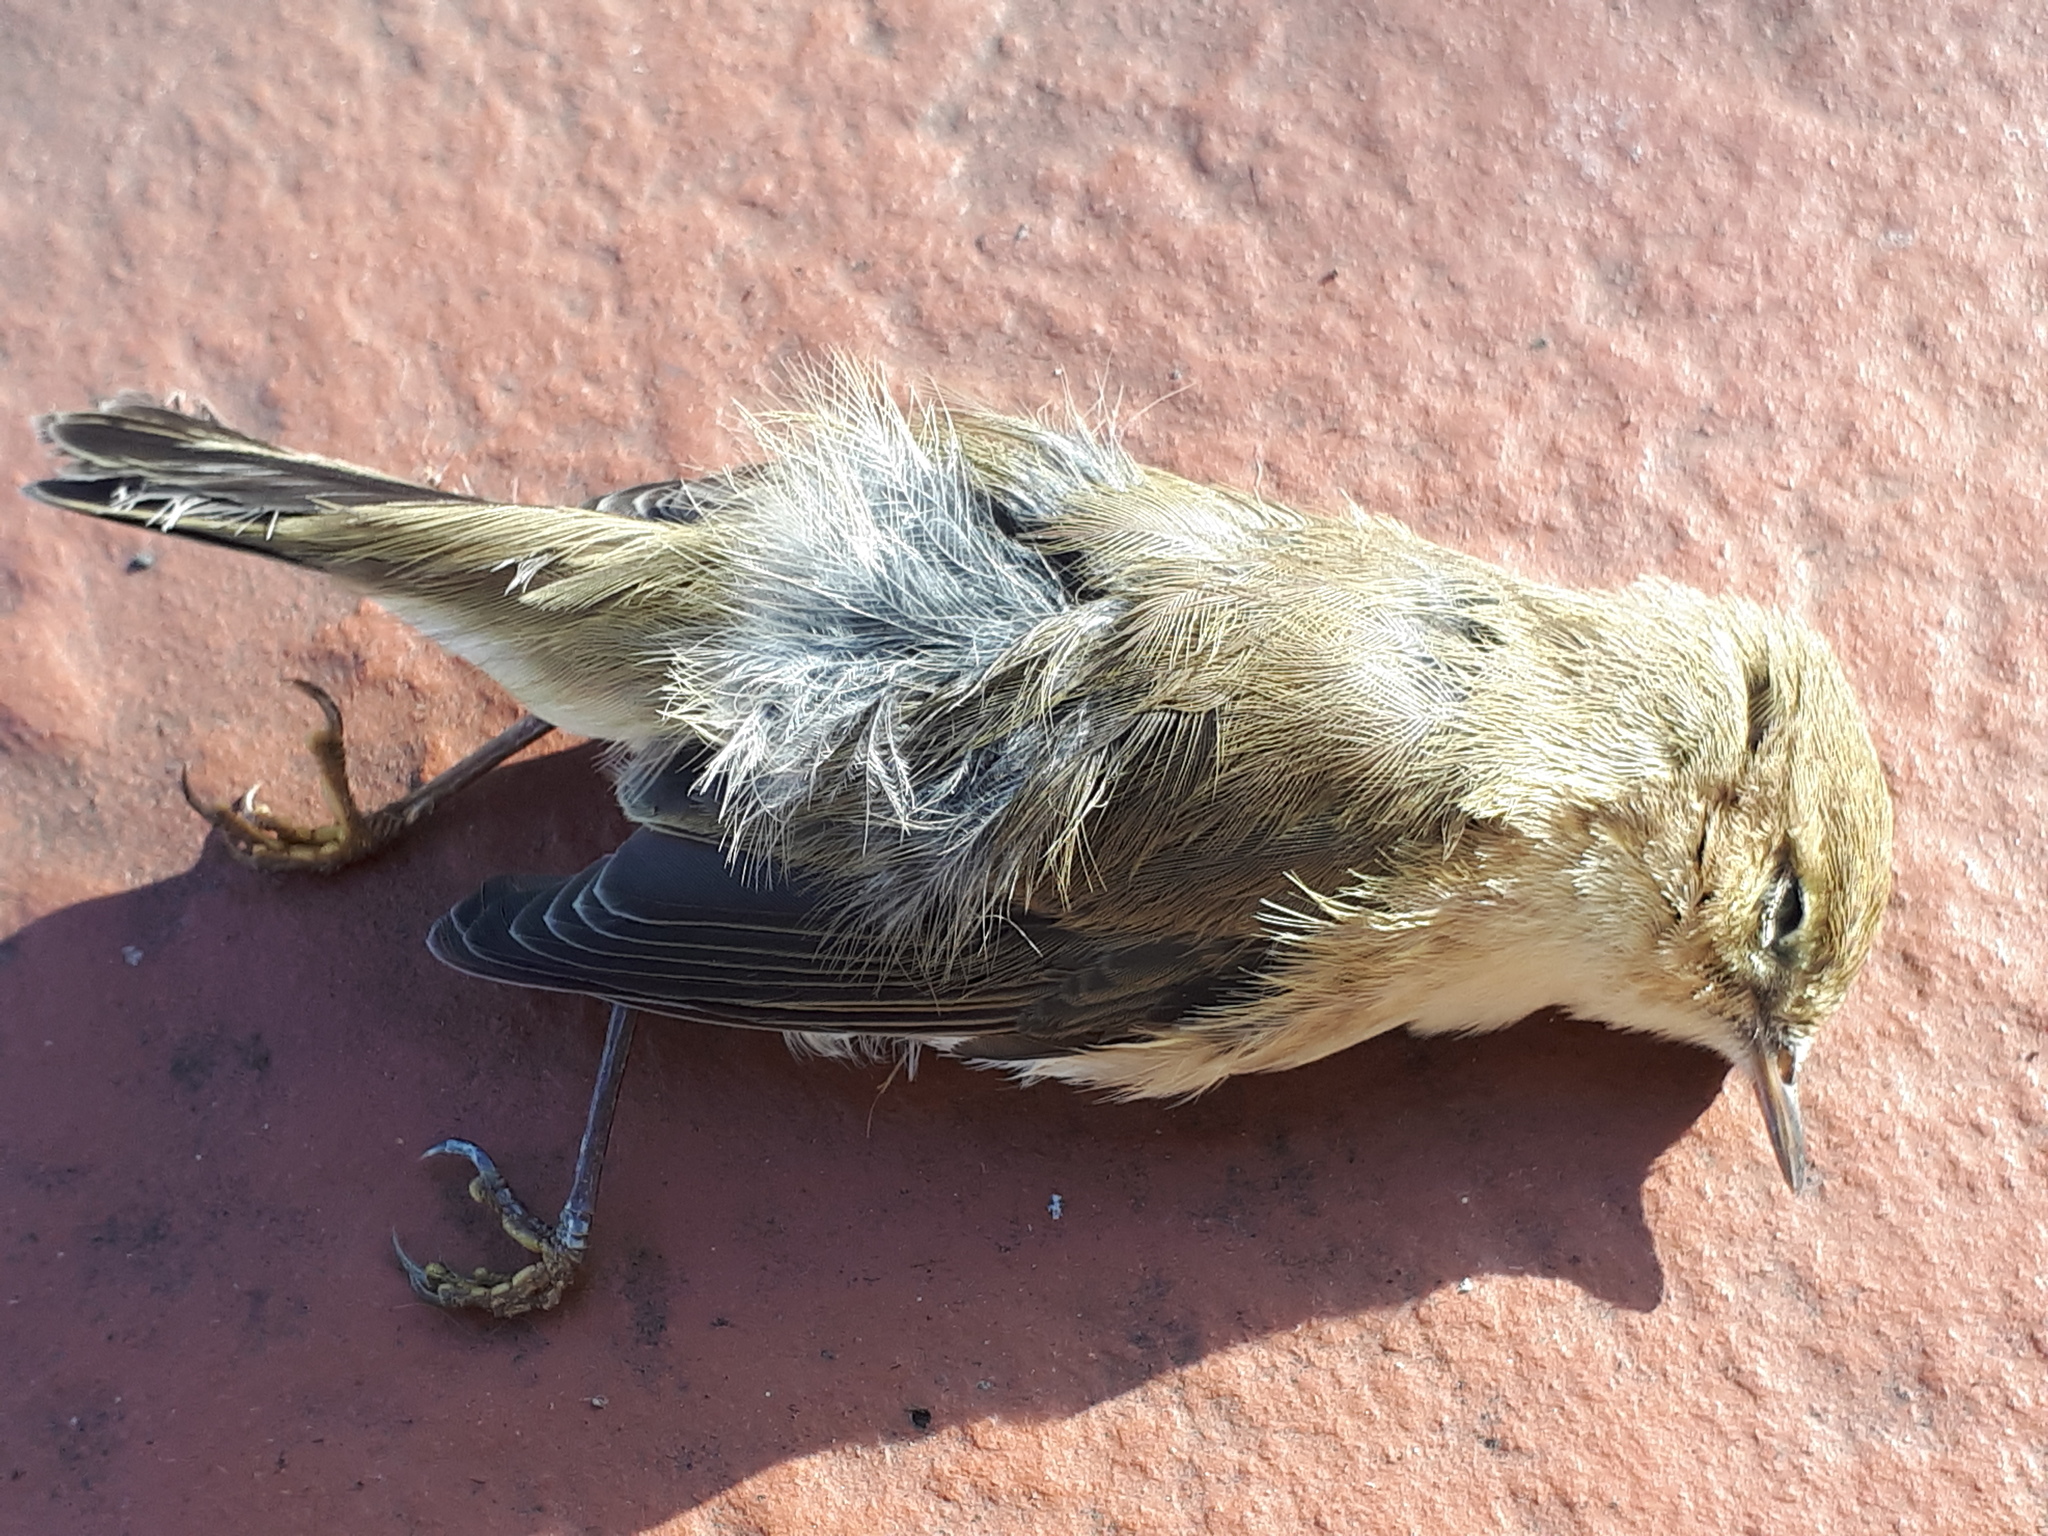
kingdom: Animalia
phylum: Chordata
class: Aves
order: Passeriformes
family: Phylloscopidae
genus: Phylloscopus
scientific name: Phylloscopus collybita
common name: Common chiffchaff
